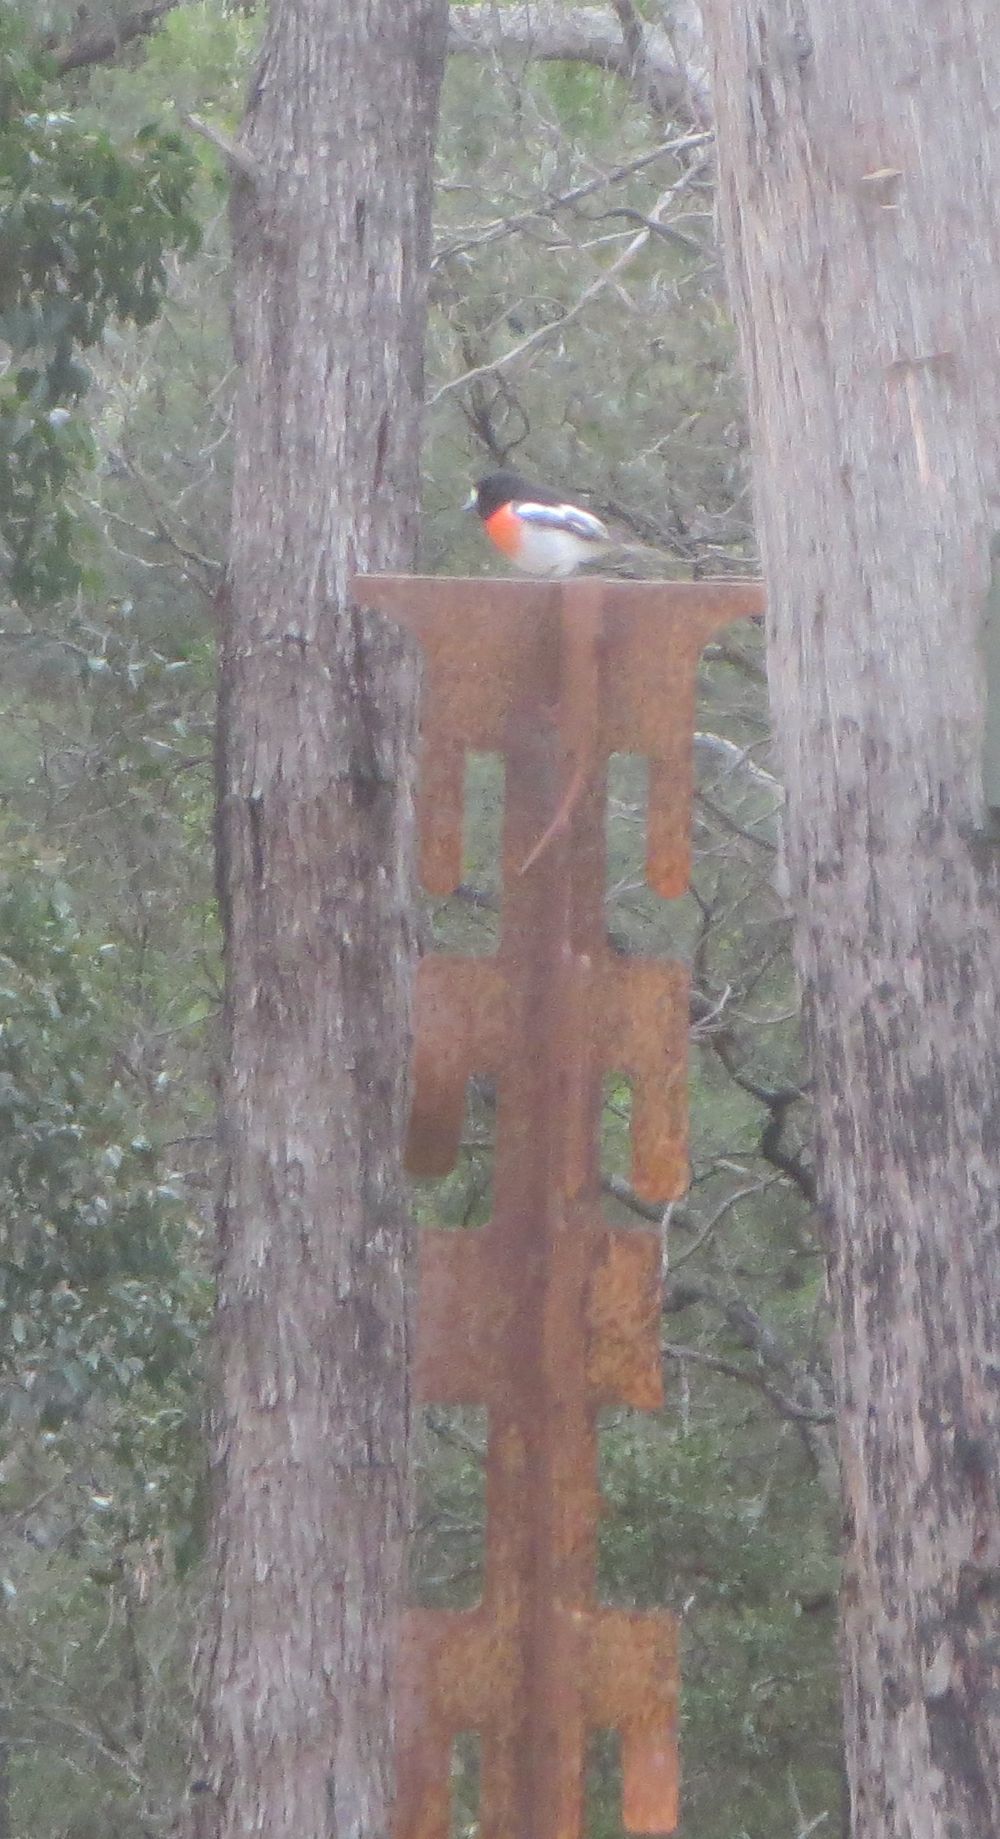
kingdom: Animalia
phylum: Chordata
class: Aves
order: Passeriformes
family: Petroicidae
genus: Petroica
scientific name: Petroica boodang
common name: Scarlet robin
